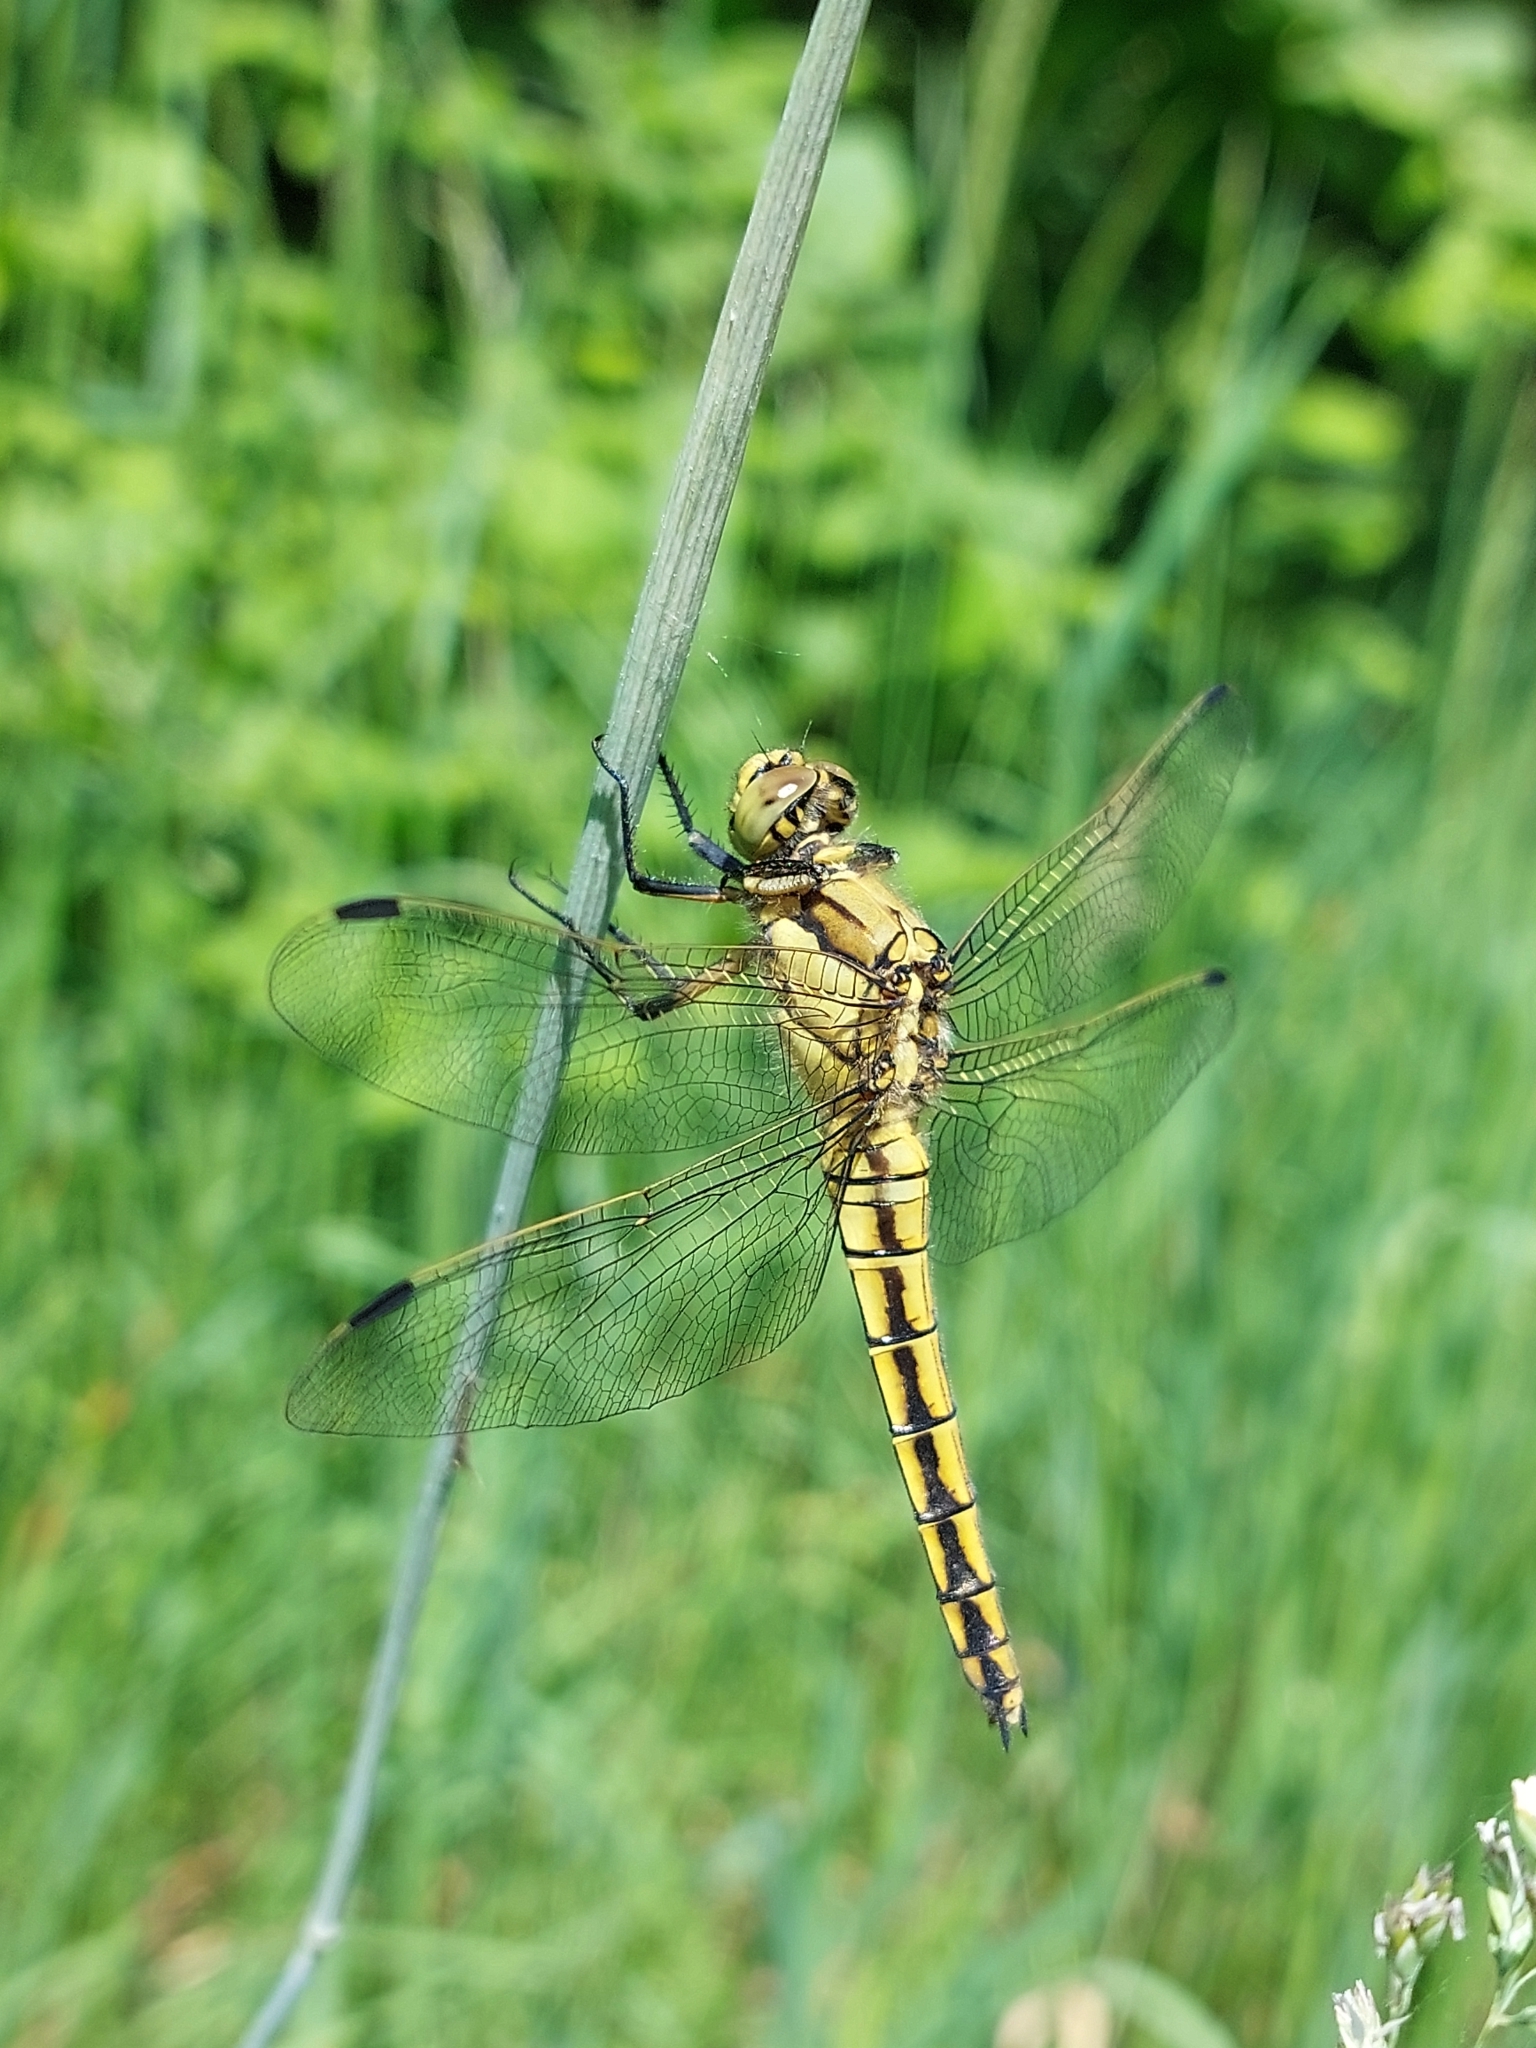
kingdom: Animalia
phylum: Arthropoda
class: Insecta
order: Odonata
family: Libellulidae
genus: Orthetrum
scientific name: Orthetrum cancellatum
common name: Black-tailed skimmer
